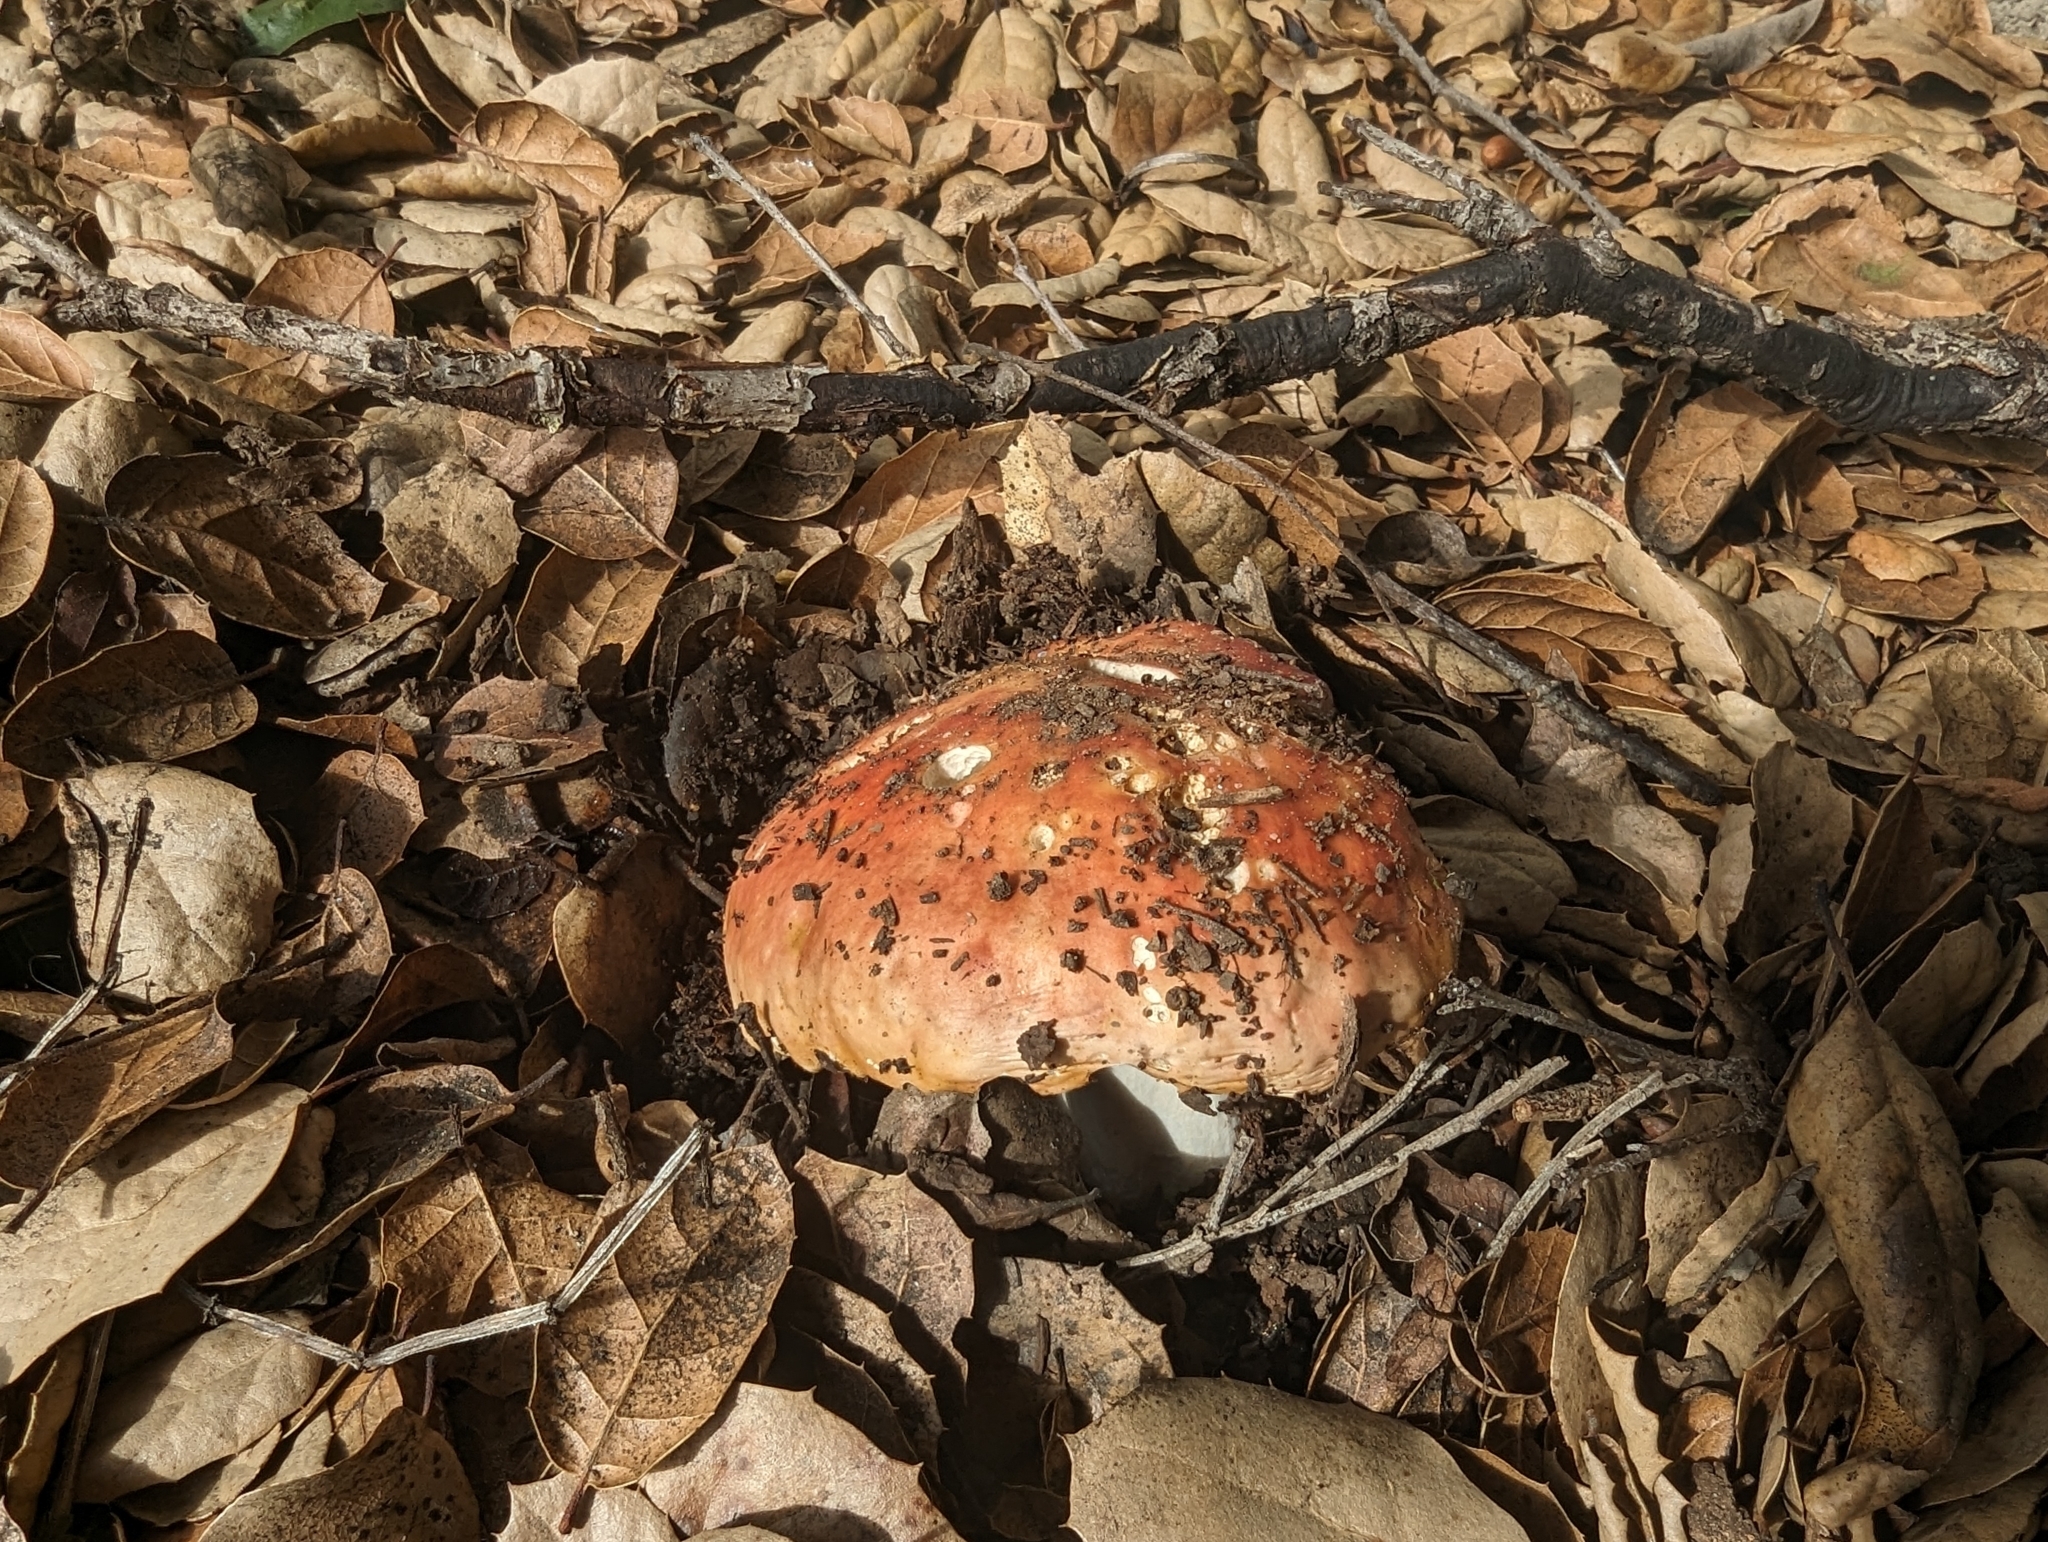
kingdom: Fungi
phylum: Basidiomycota
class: Agaricomycetes
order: Russulales
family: Russulaceae
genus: Russula
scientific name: Russula cremoricolor
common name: Winter russula
